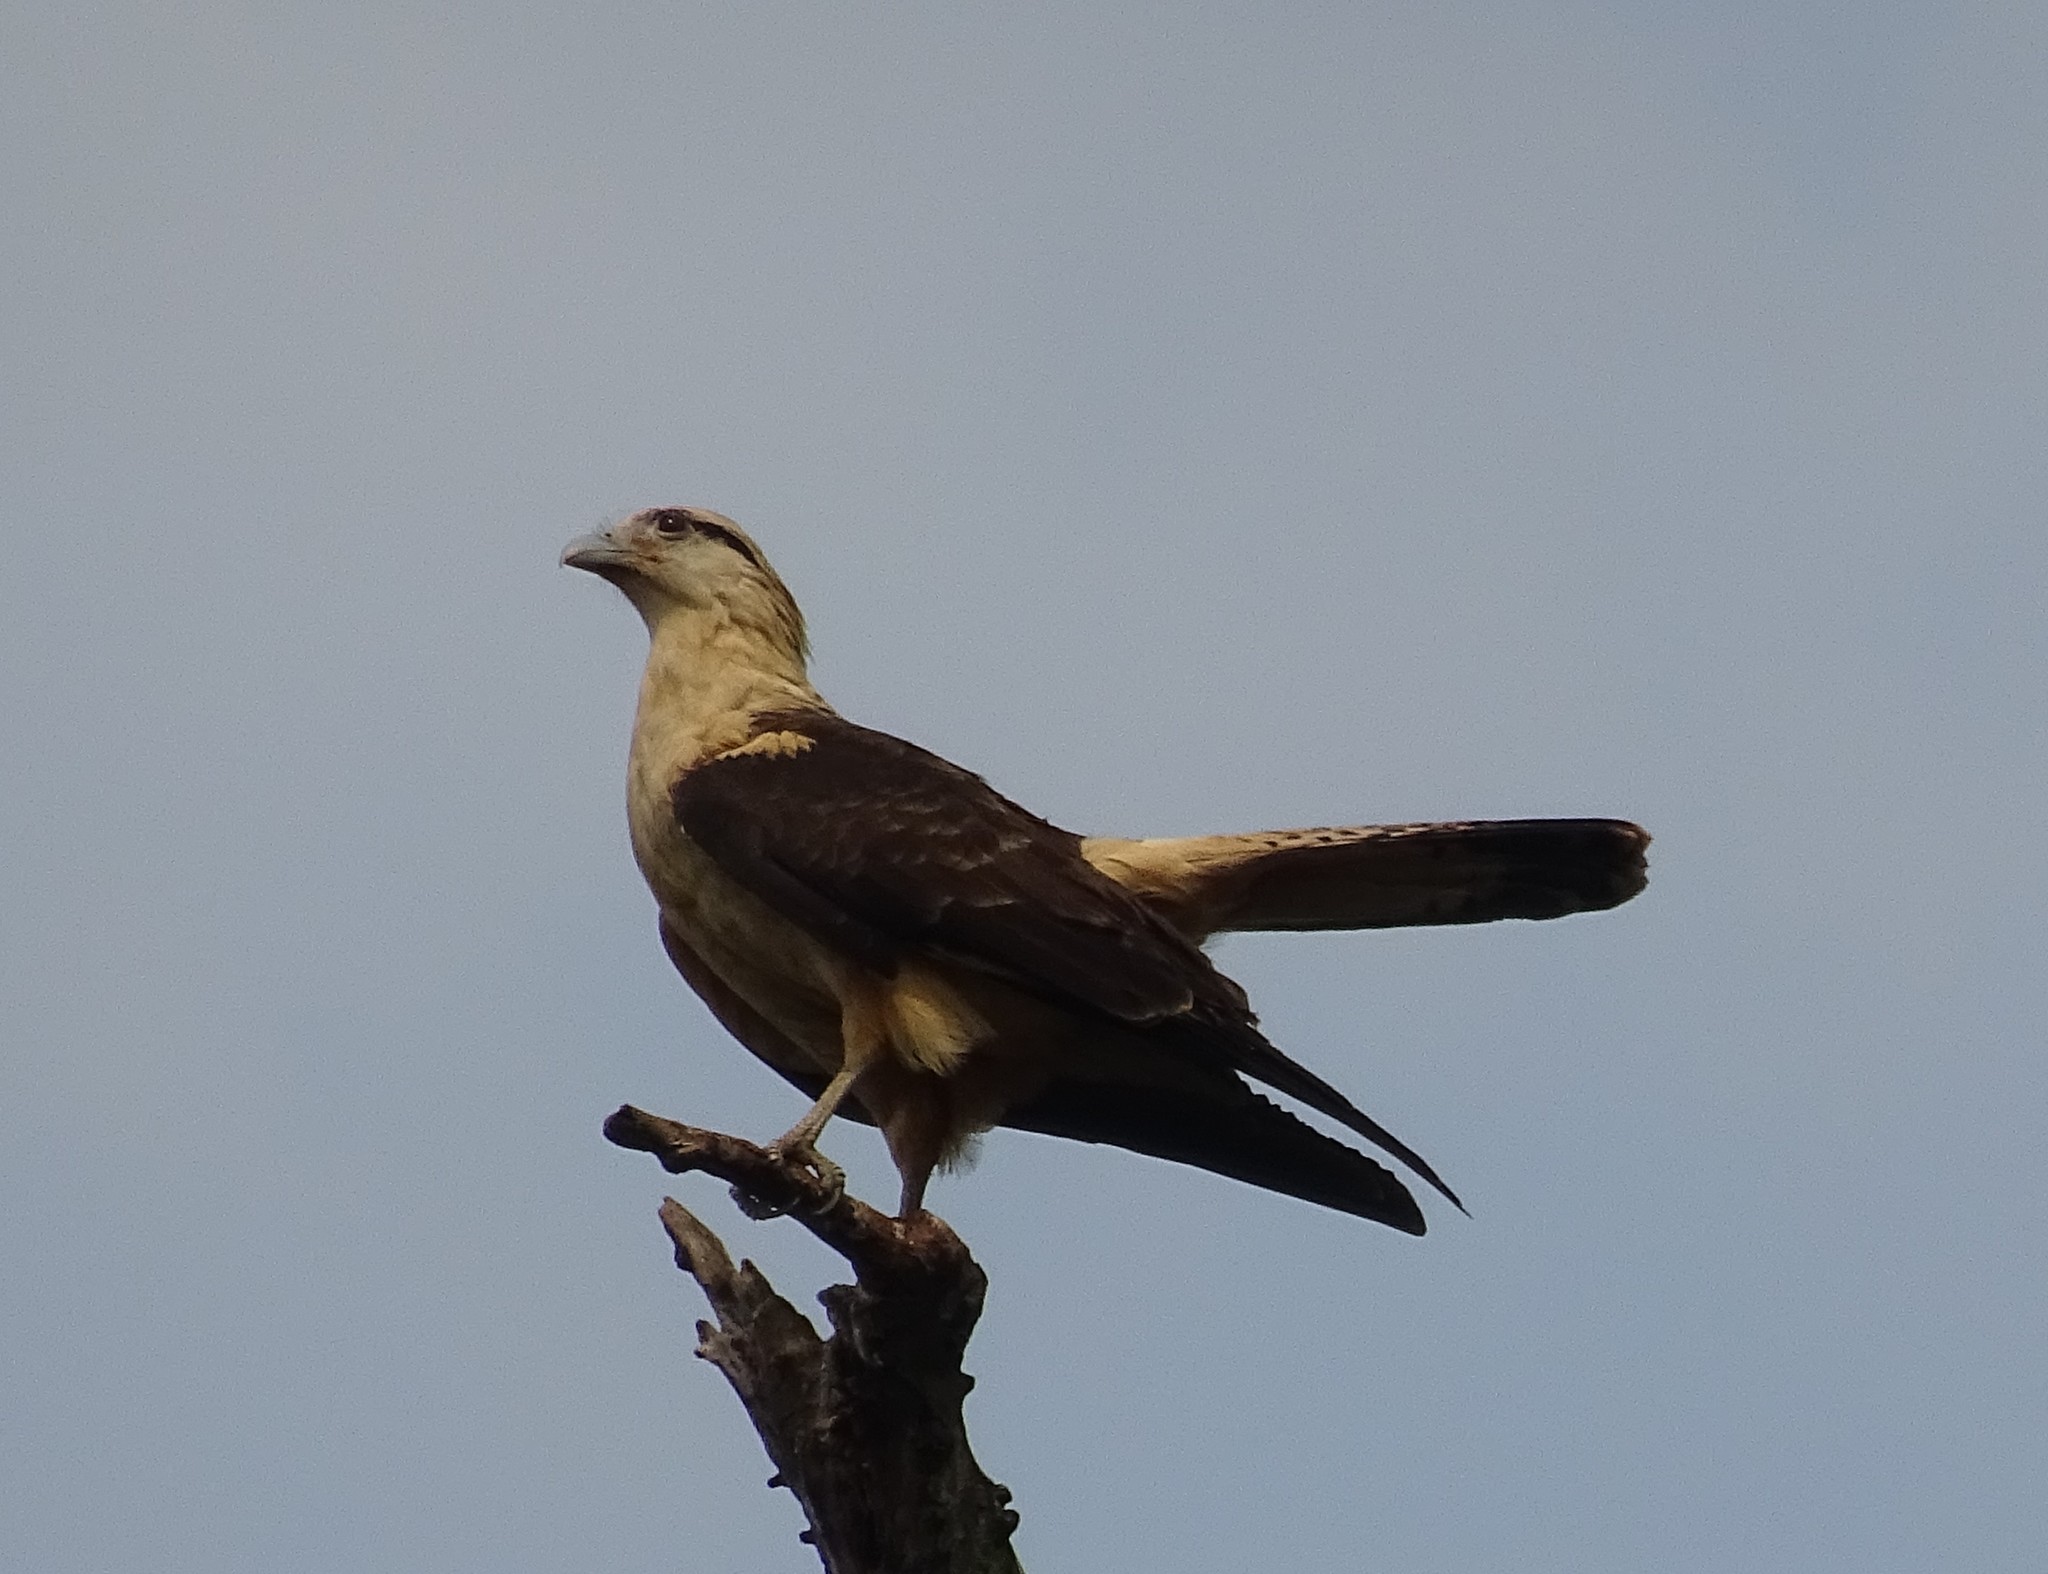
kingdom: Animalia
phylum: Chordata
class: Aves
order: Falconiformes
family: Falconidae
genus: Daptrius
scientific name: Daptrius
